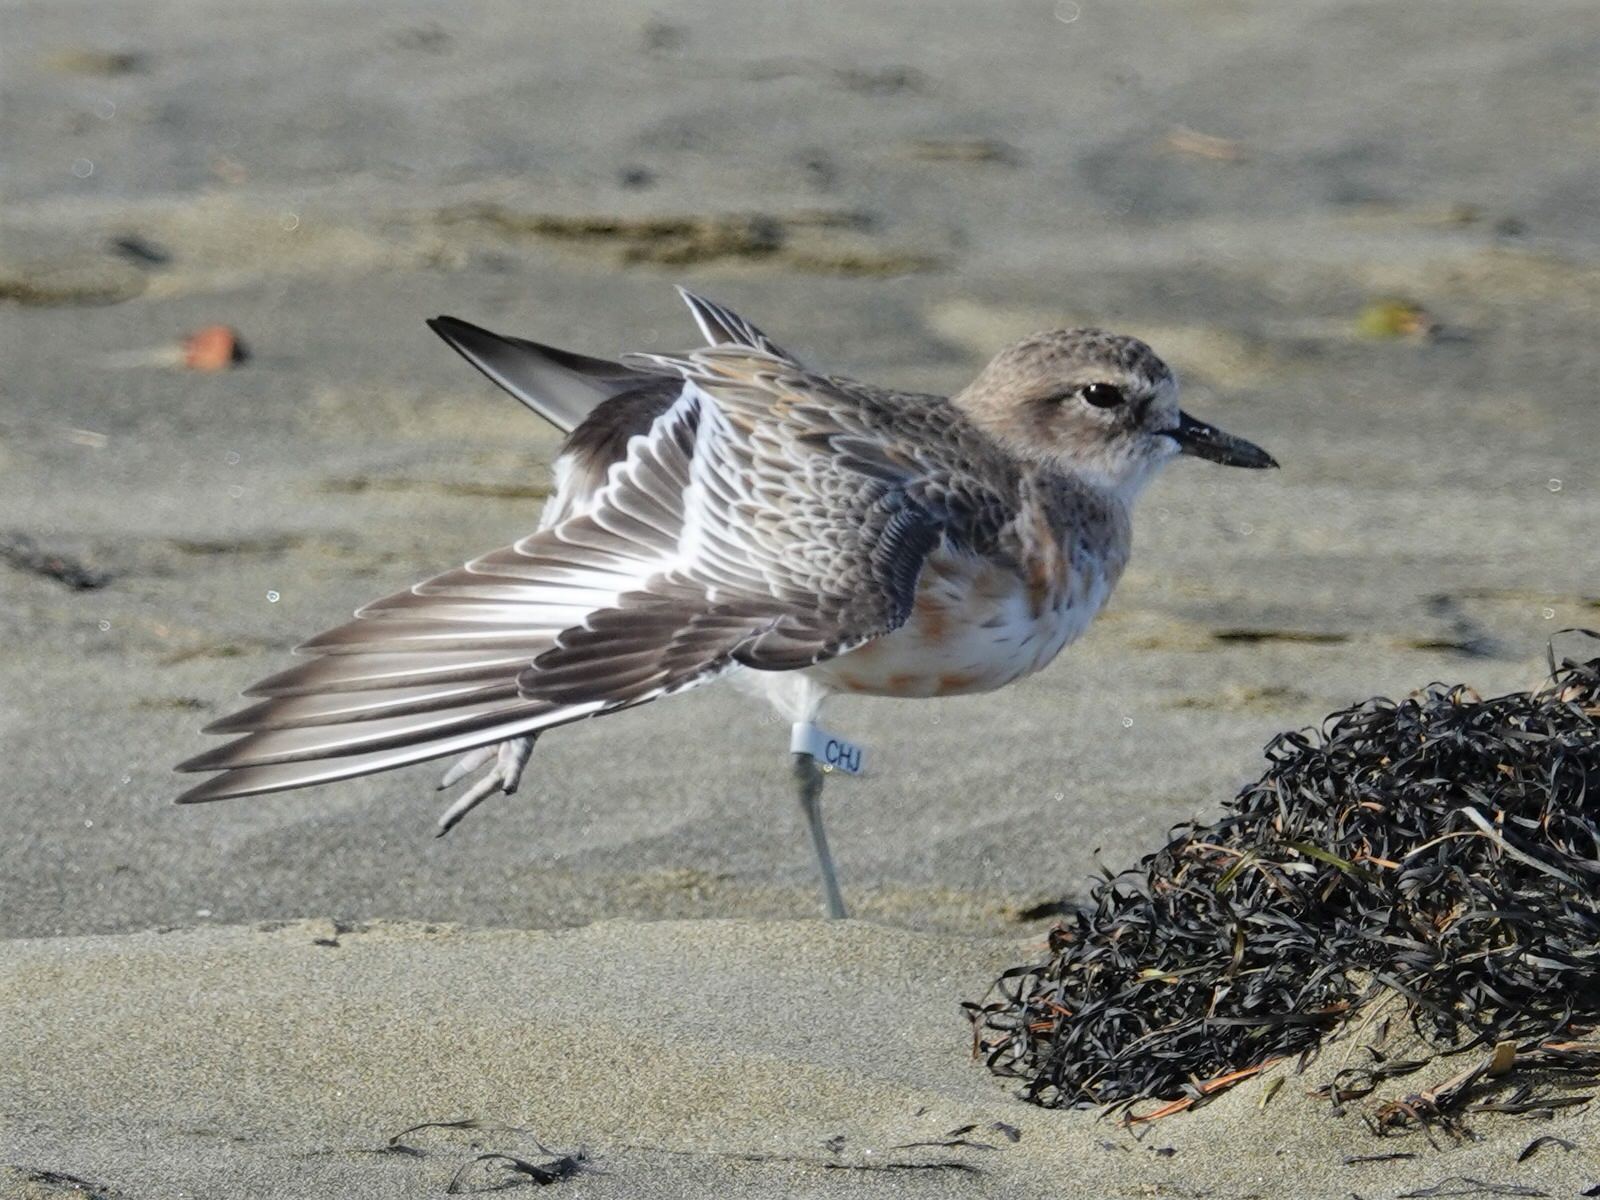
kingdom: Animalia
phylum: Chordata
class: Aves
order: Charadriiformes
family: Charadriidae
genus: Anarhynchus
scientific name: Anarhynchus
